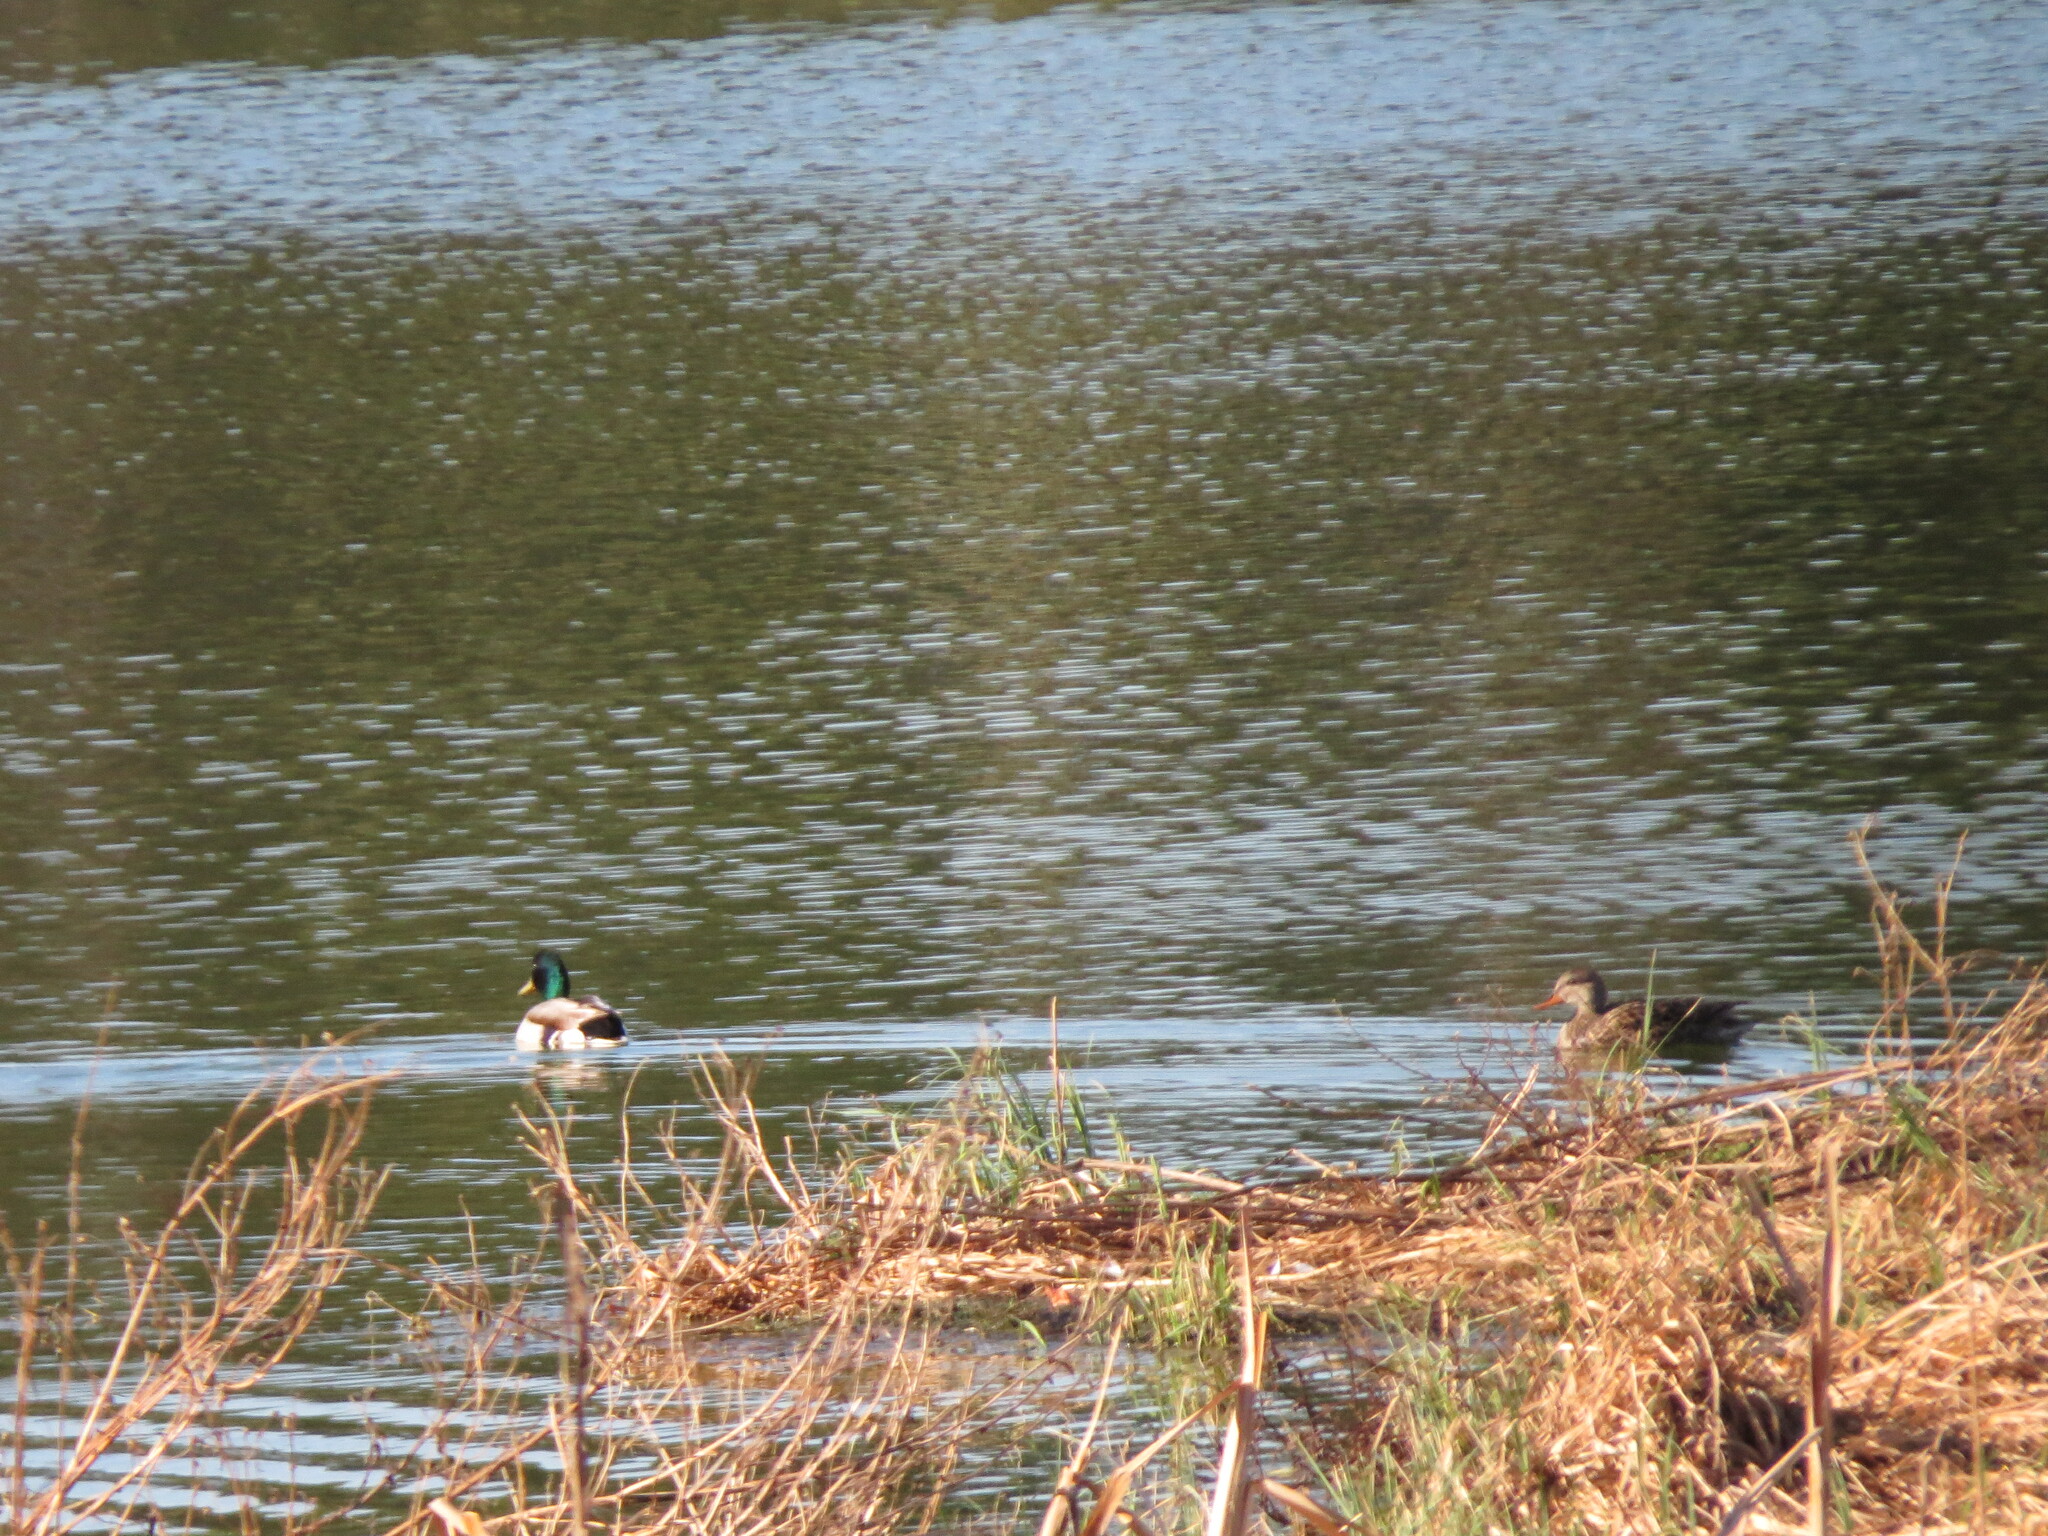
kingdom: Animalia
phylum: Chordata
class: Aves
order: Anseriformes
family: Anatidae
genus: Anas
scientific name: Anas platyrhynchos
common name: Mallard
